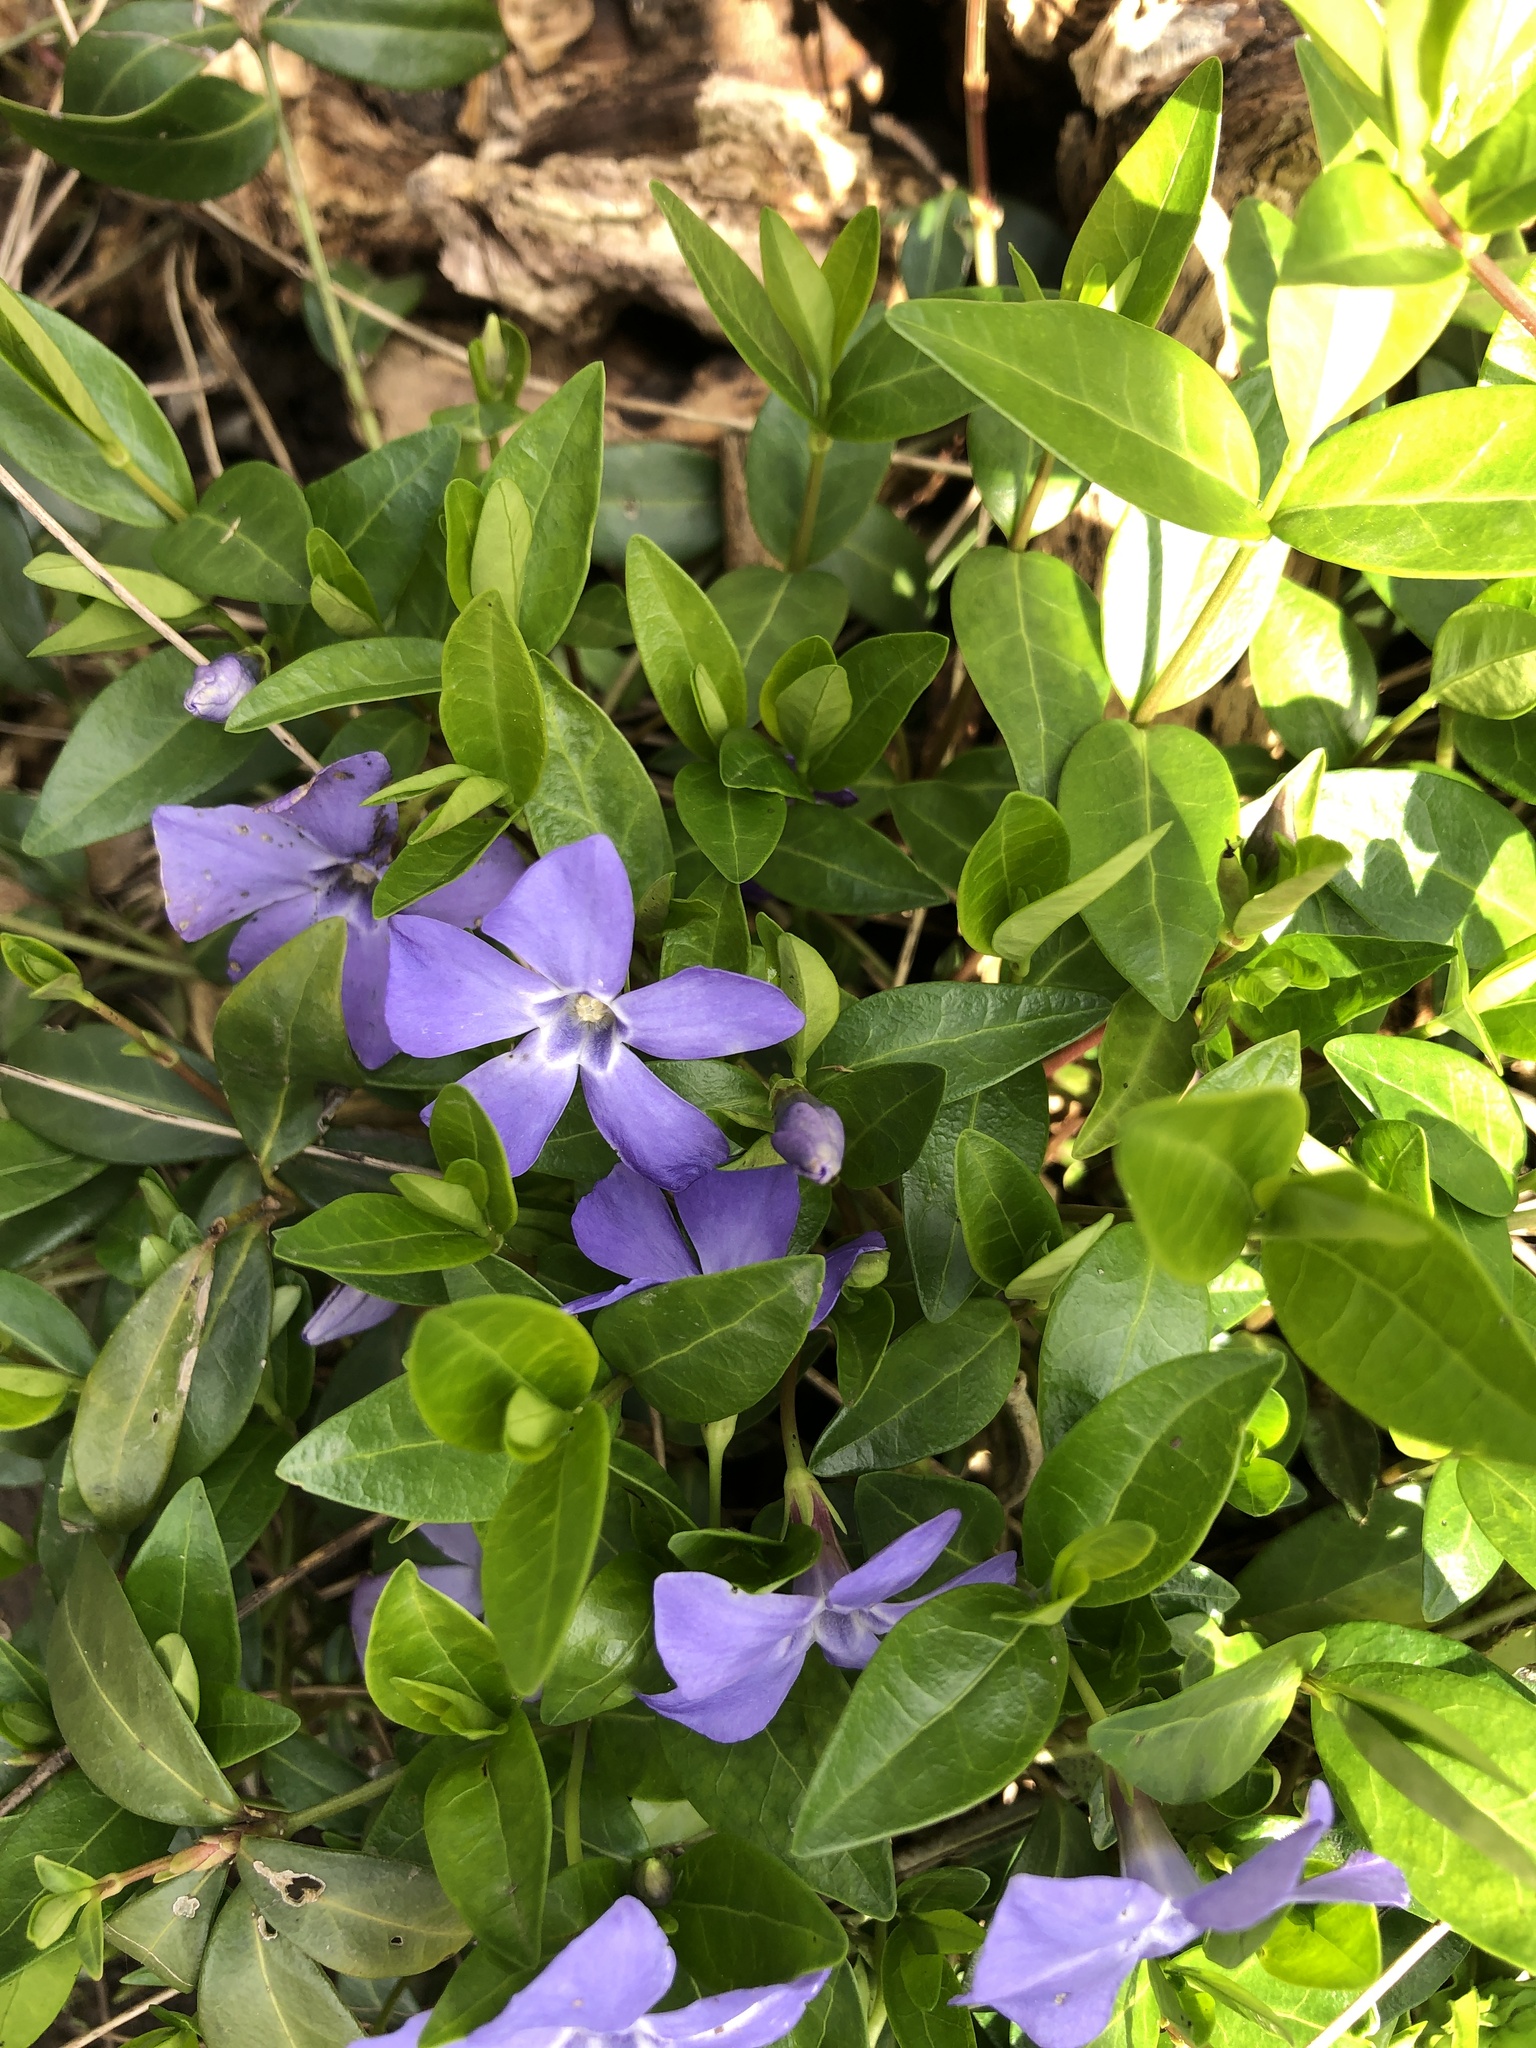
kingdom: Plantae
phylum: Tracheophyta
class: Magnoliopsida
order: Gentianales
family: Apocynaceae
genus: Vinca
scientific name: Vinca minor
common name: Lesser periwinkle
